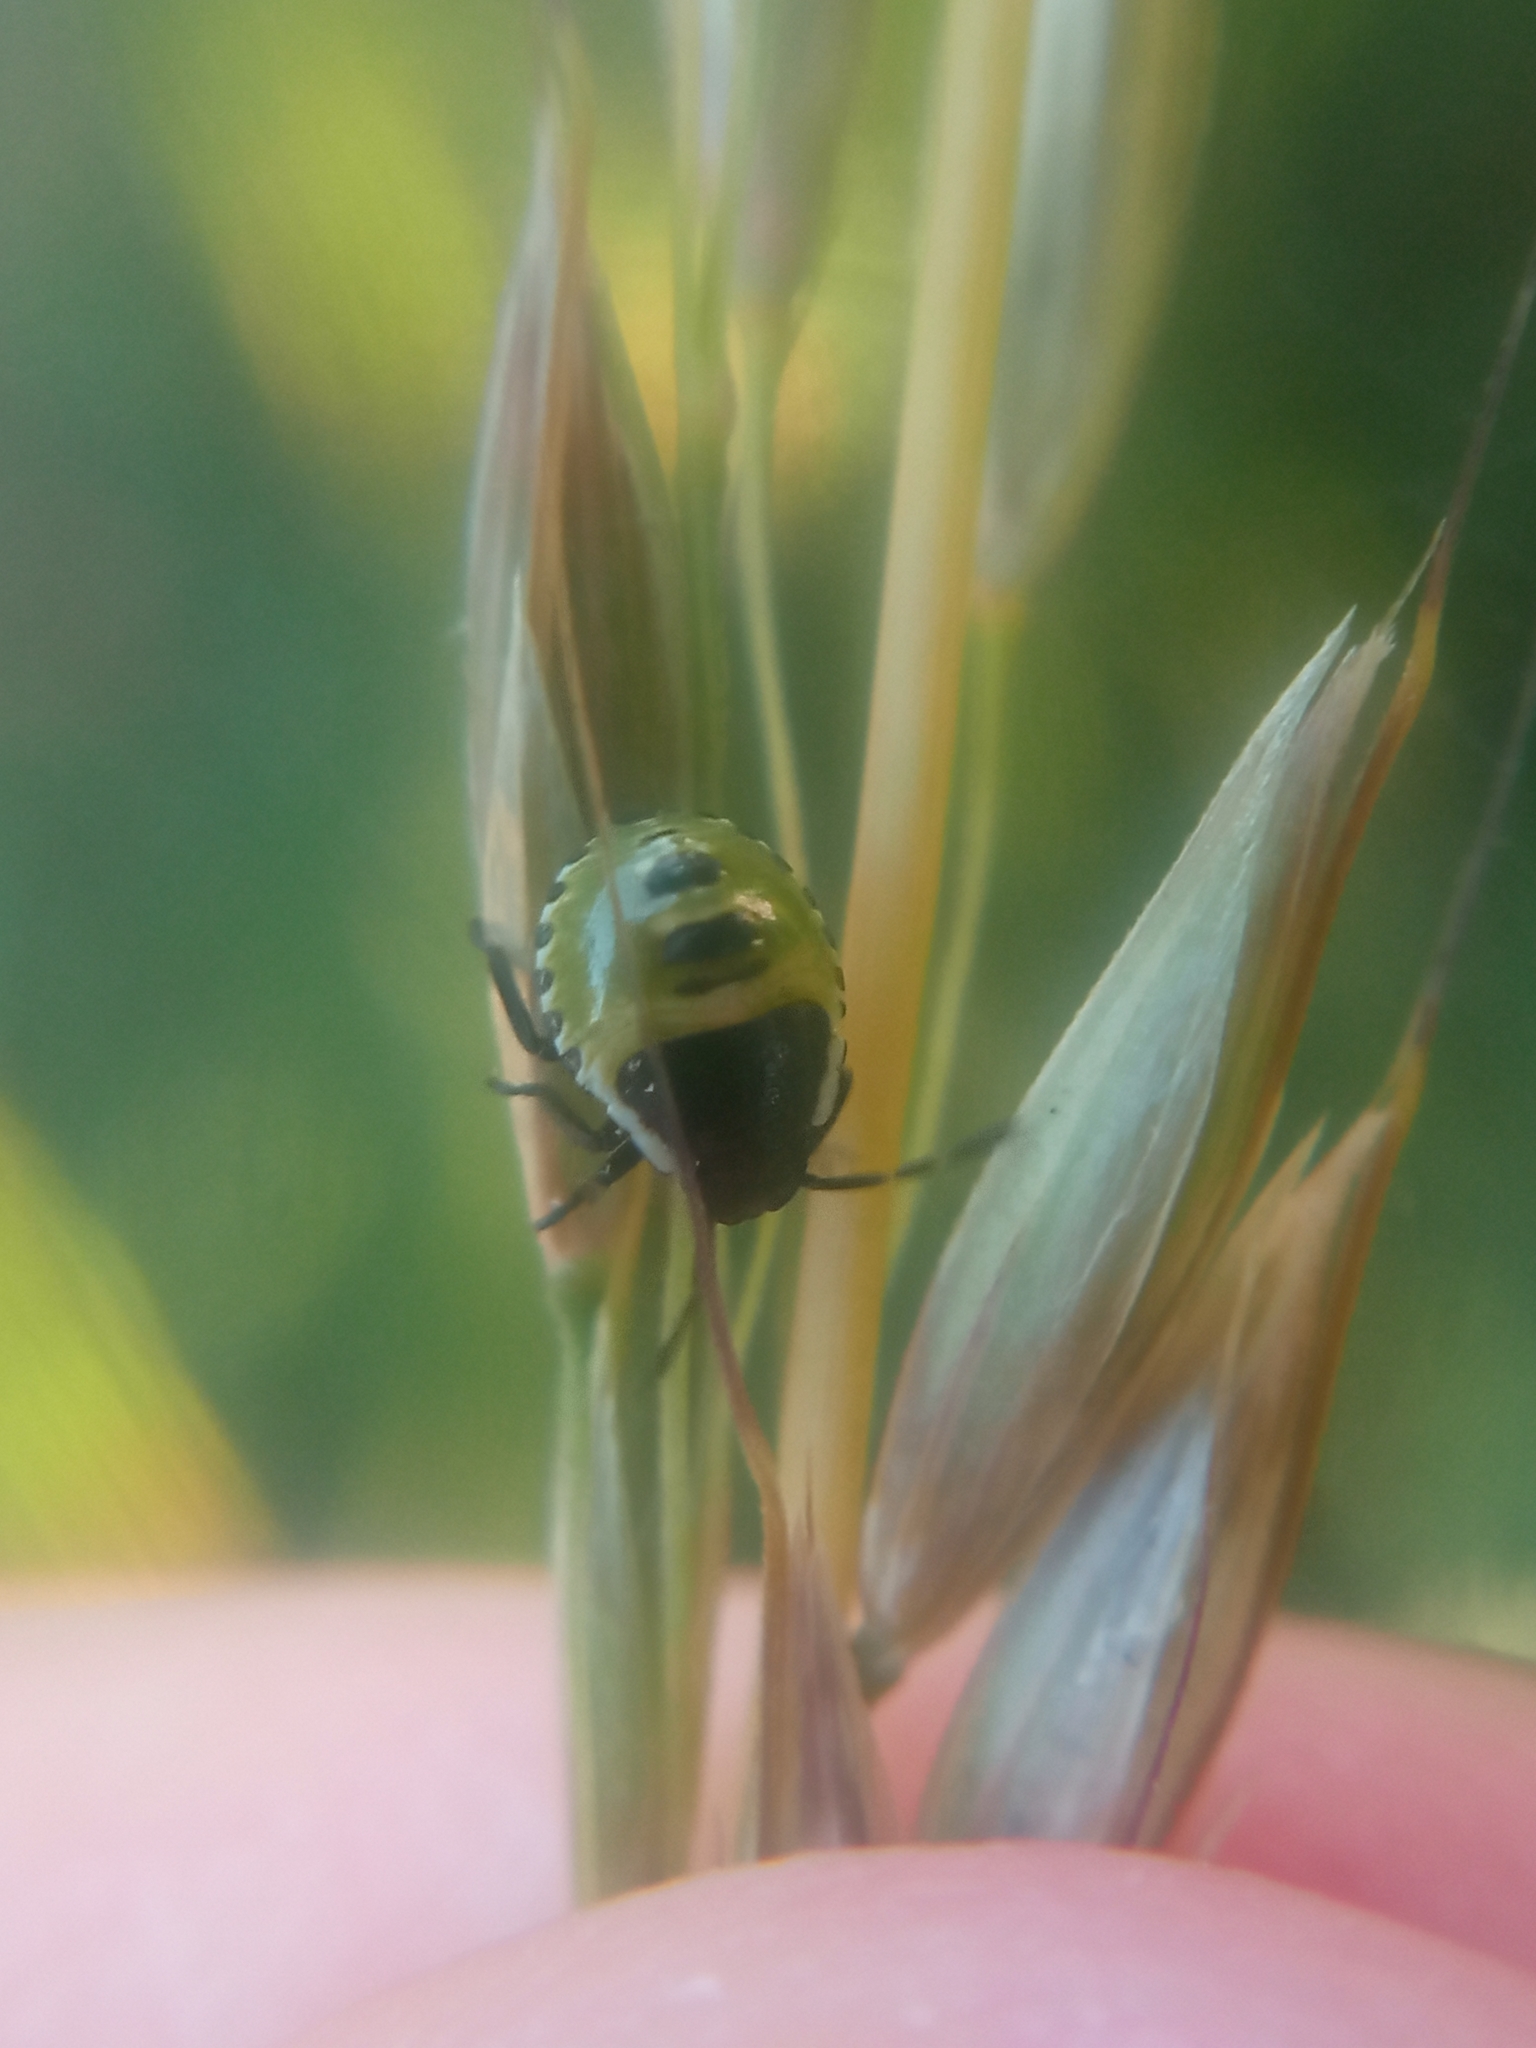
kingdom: Animalia
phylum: Arthropoda
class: Insecta
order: Hemiptera
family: Pentatomidae
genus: Palomena
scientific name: Palomena prasina
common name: Green shieldbug
